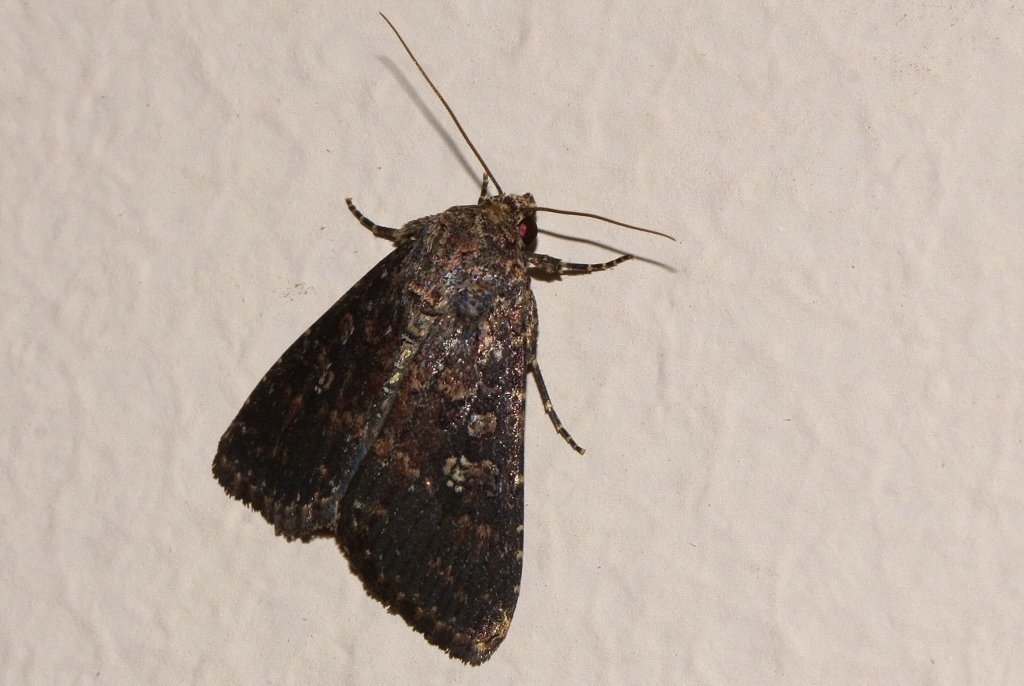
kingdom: Animalia
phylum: Arthropoda
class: Insecta
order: Lepidoptera
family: Noctuidae
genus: Condica
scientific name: Condica capensis
